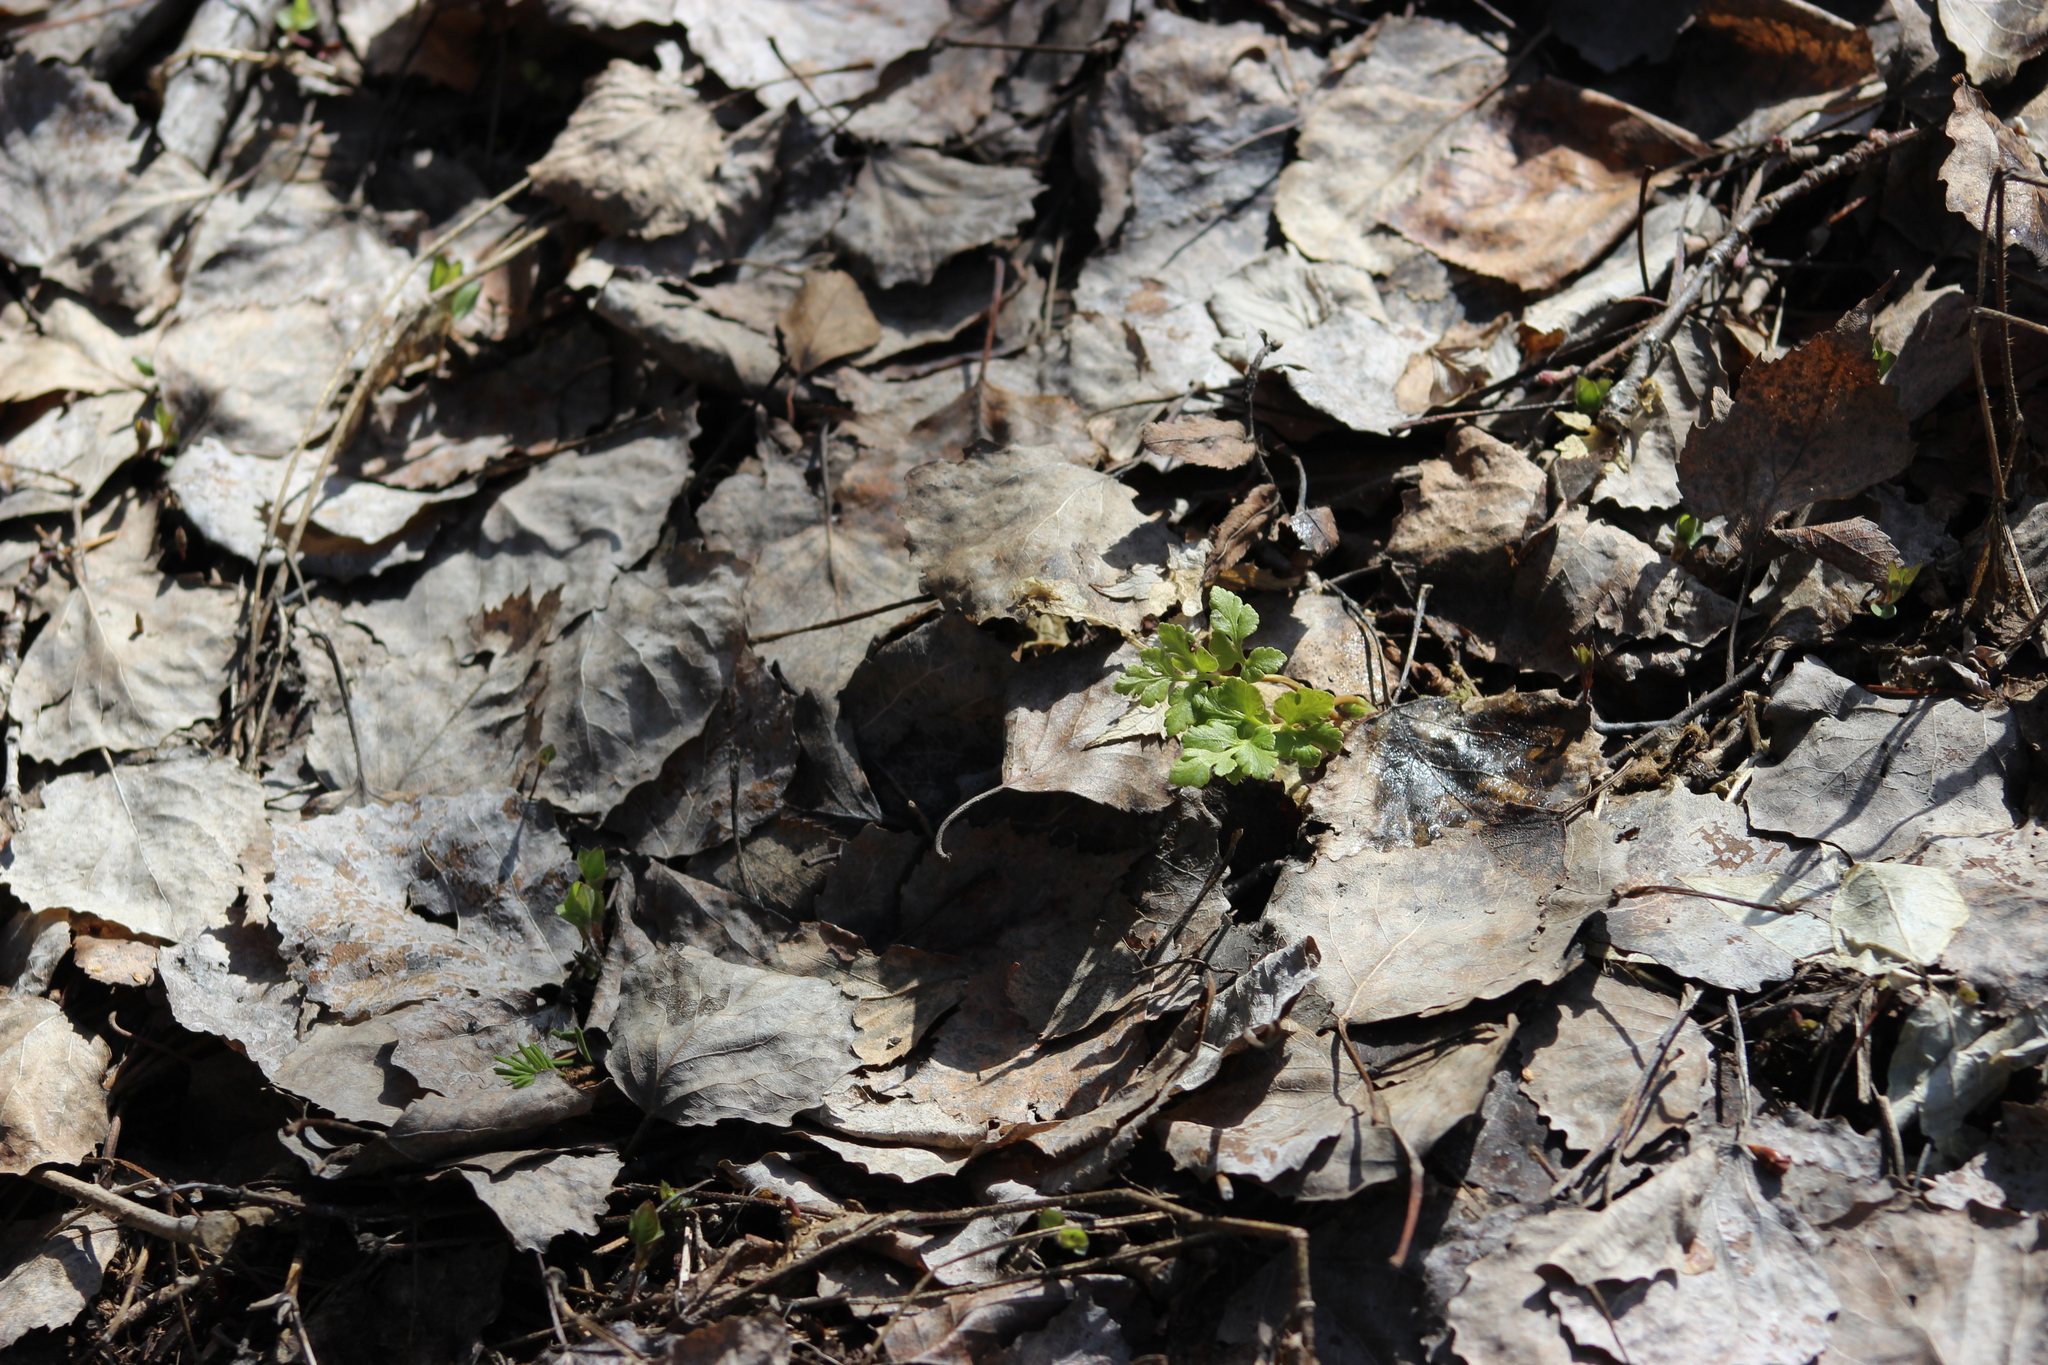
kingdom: Plantae
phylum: Tracheophyta
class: Polypodiopsida
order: Ophioglossales
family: Ophioglossaceae
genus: Sceptridium
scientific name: Sceptridium multifidum
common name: Leathery grape fern
